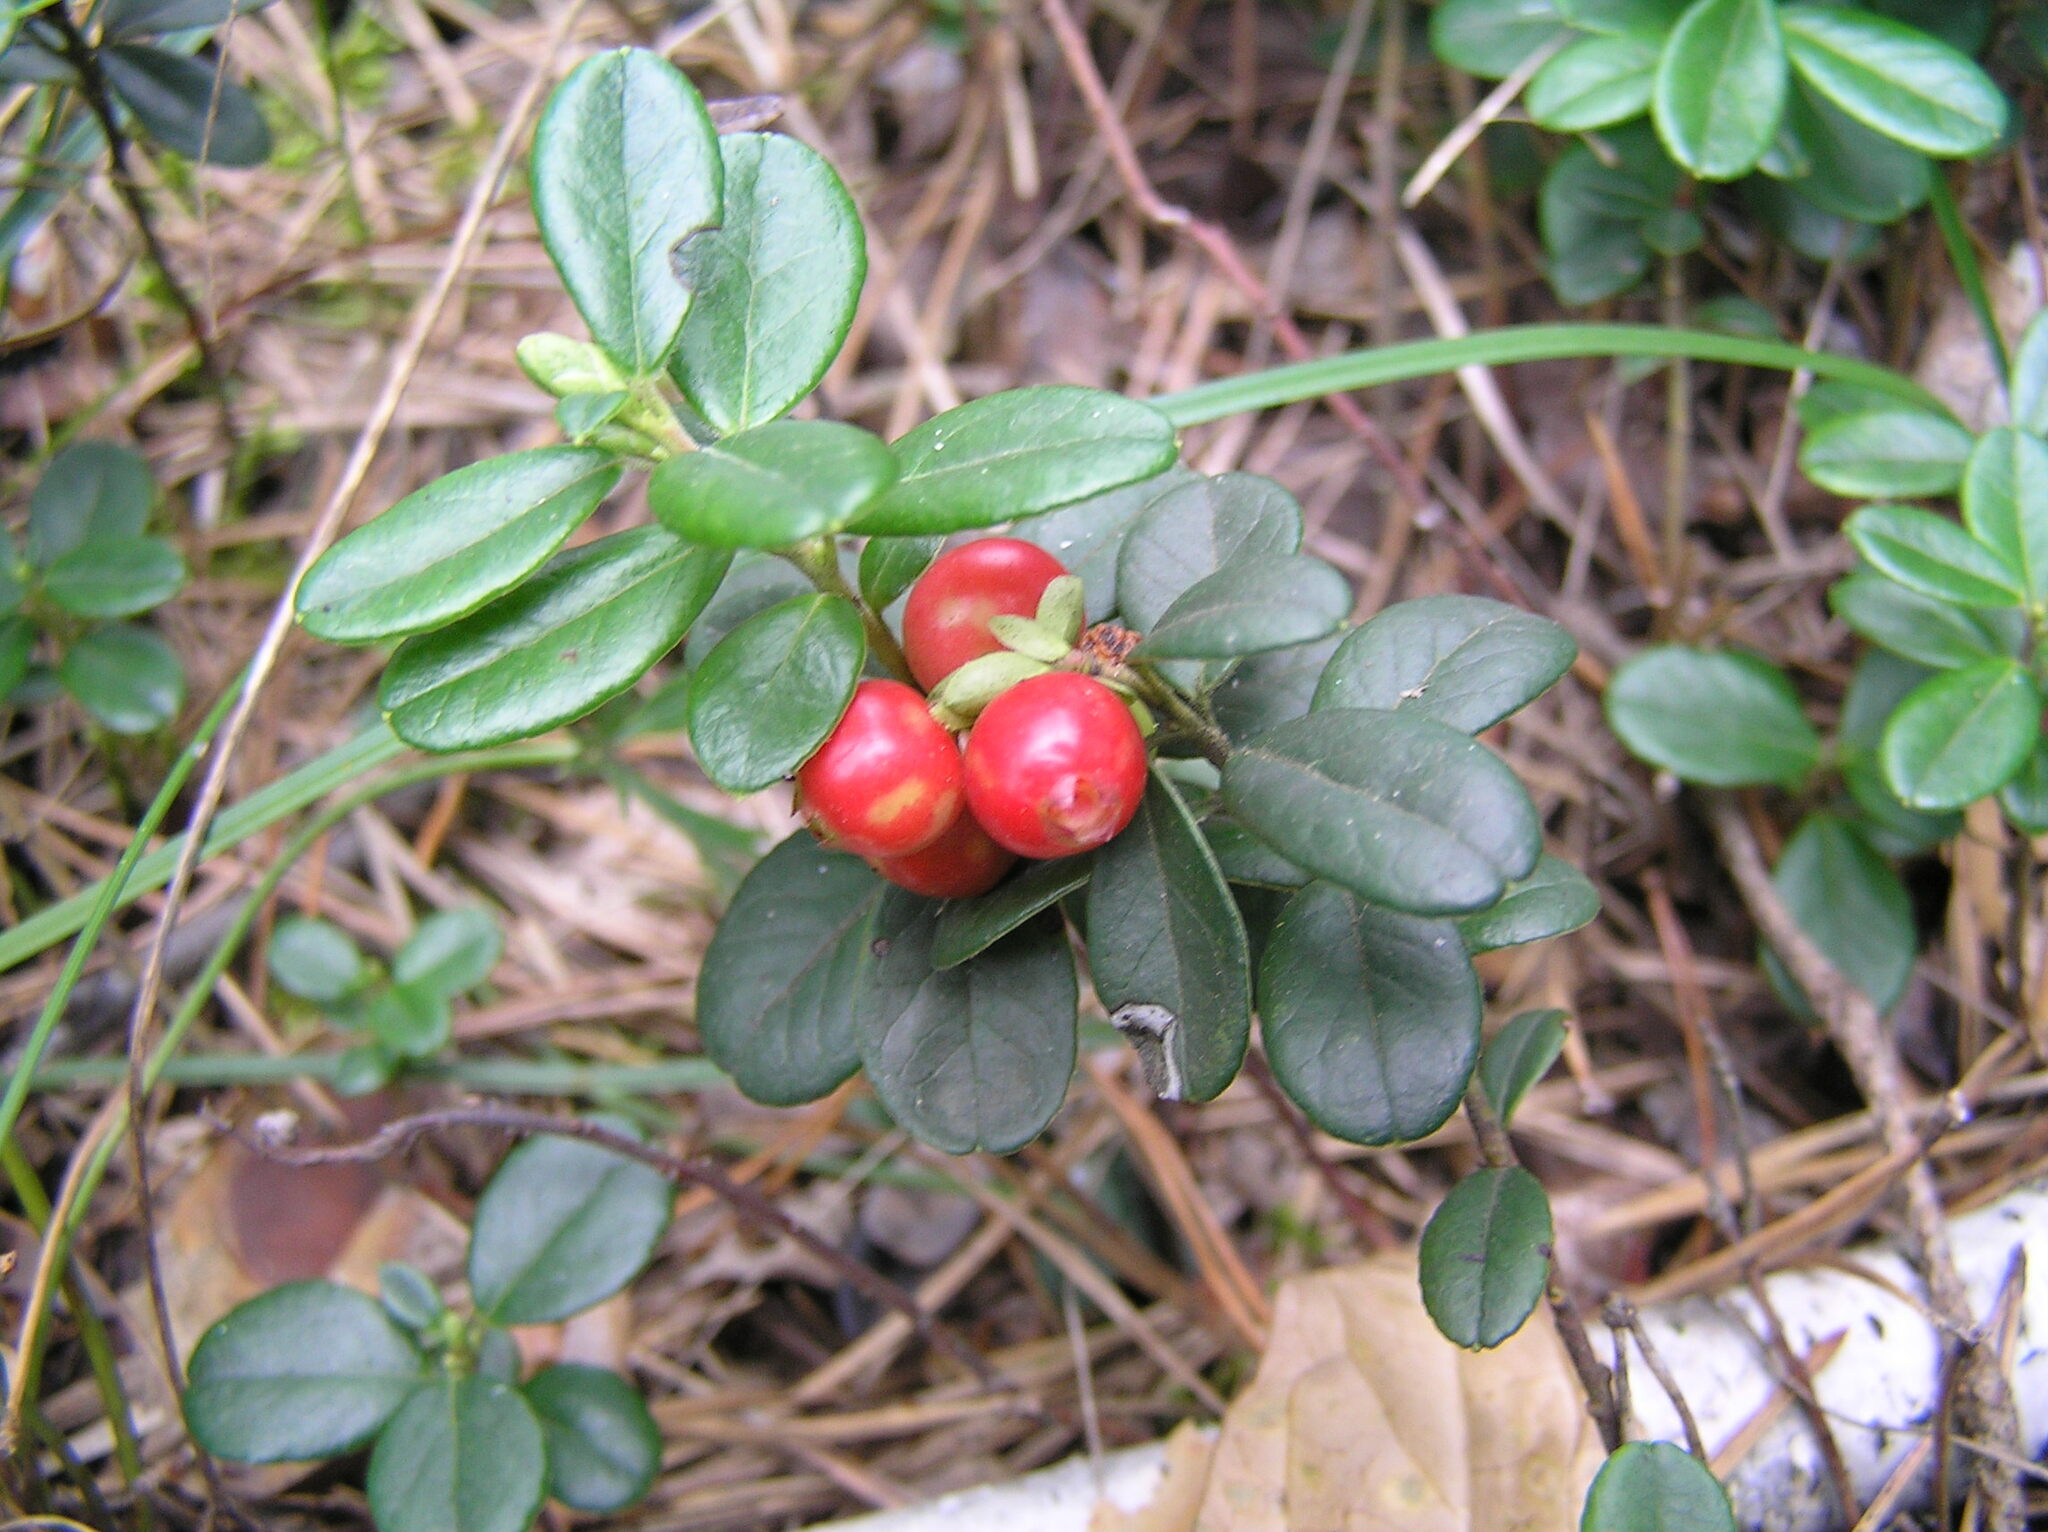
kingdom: Plantae
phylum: Tracheophyta
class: Magnoliopsida
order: Ericales
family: Ericaceae
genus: Vaccinium
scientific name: Vaccinium vitis-idaea
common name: Cowberry
